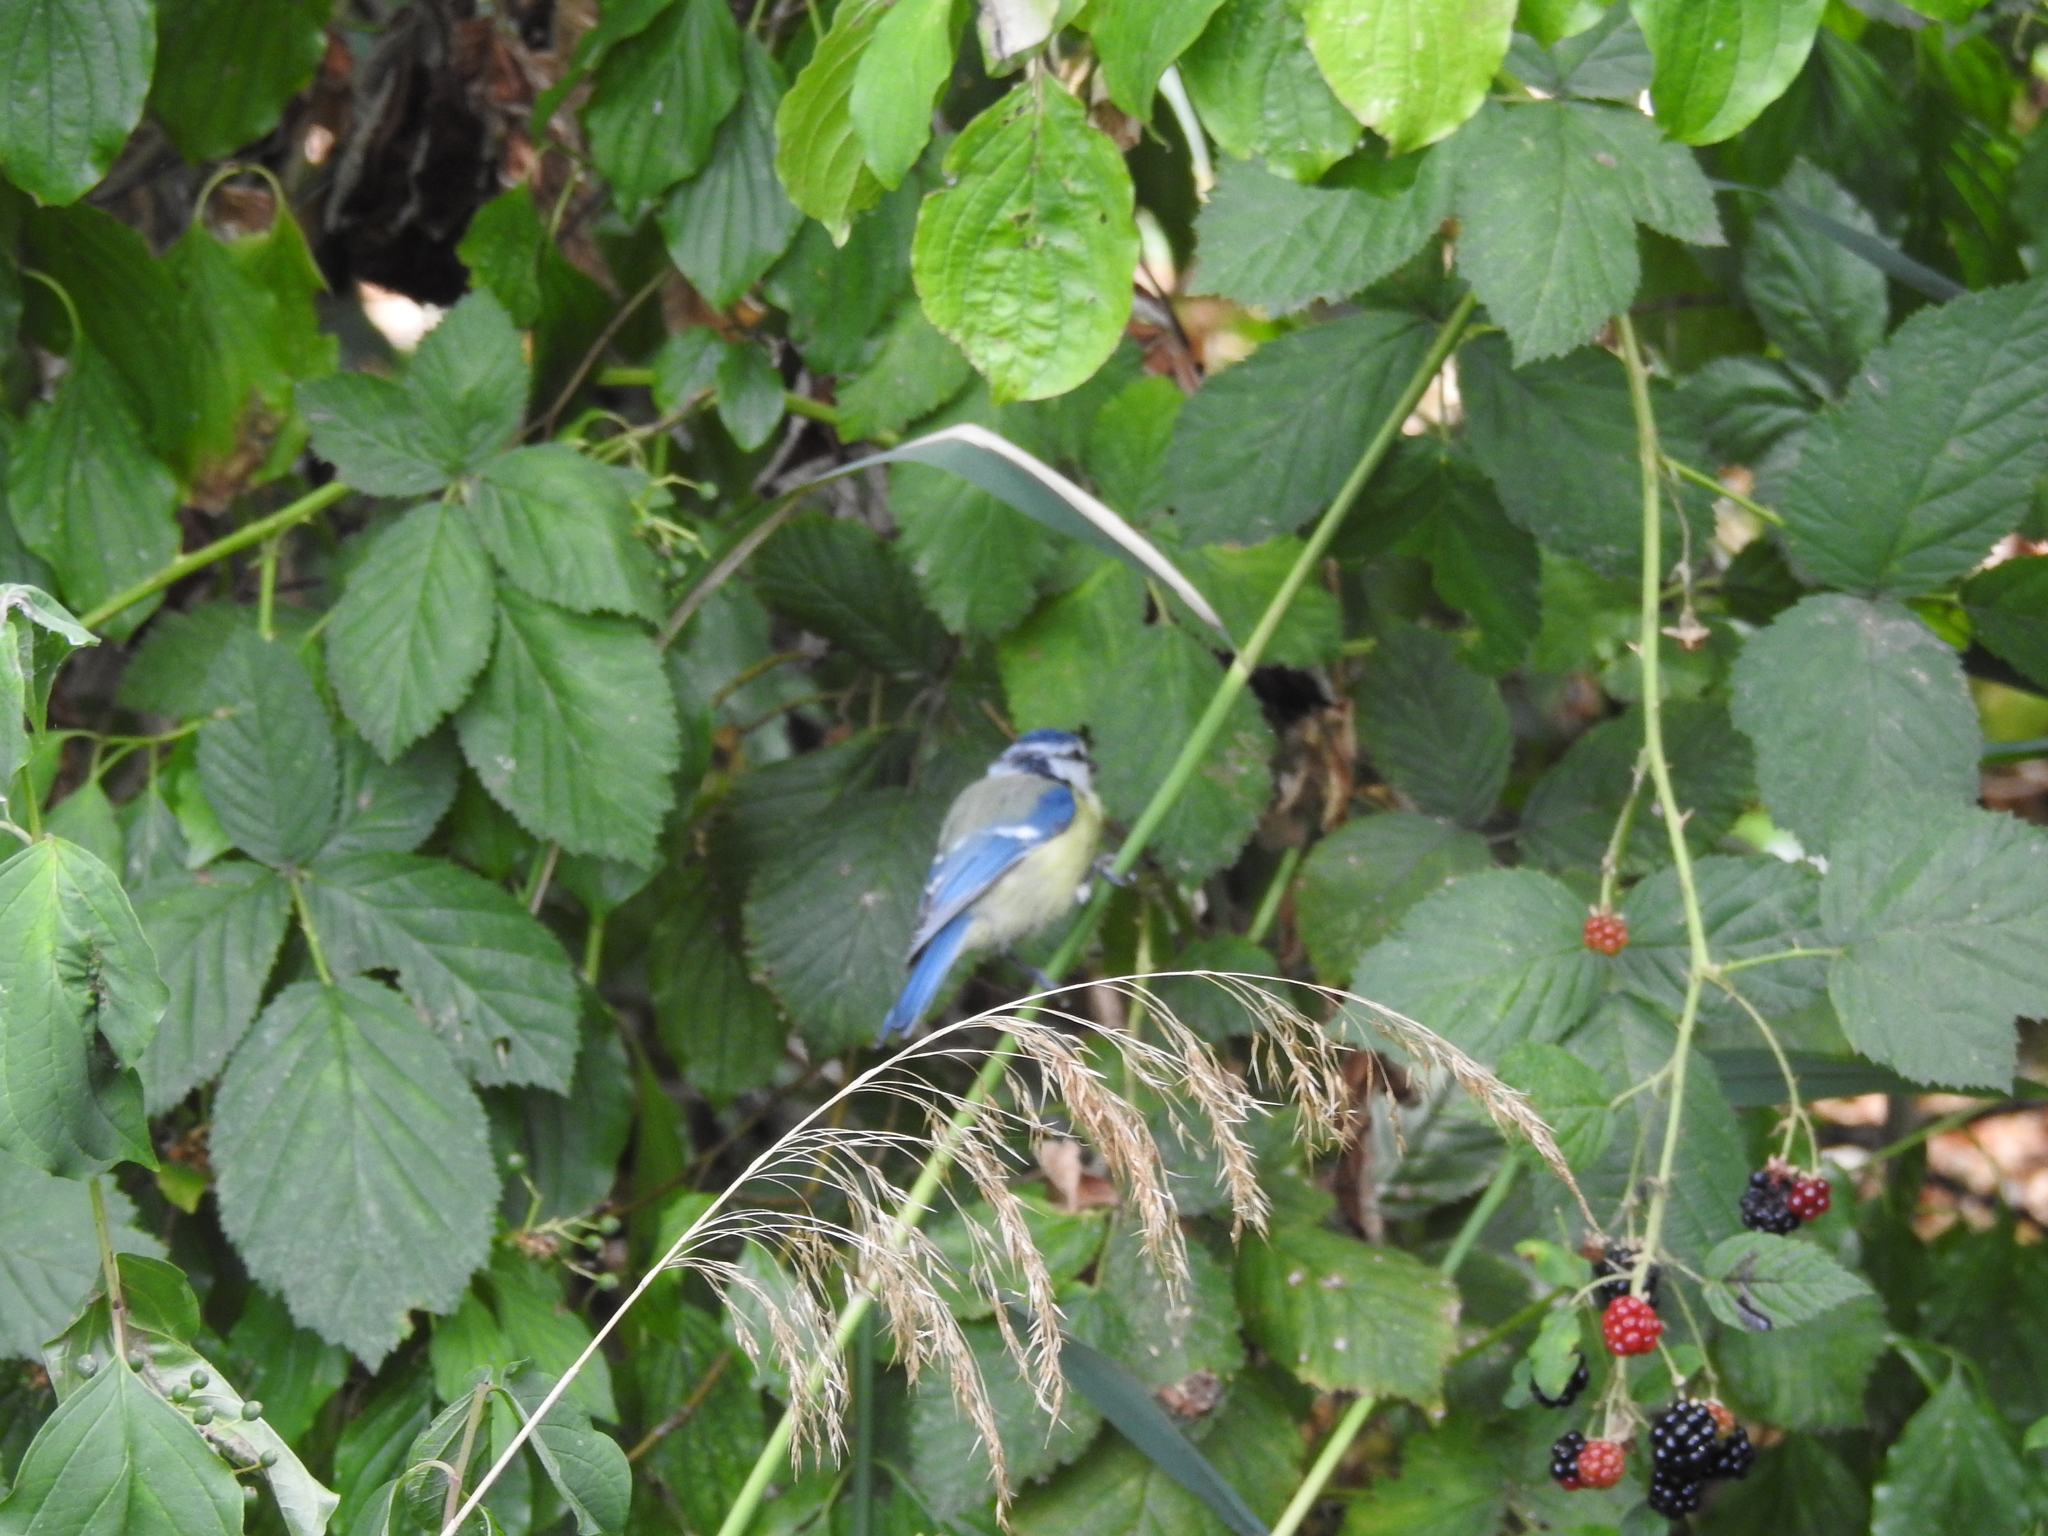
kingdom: Animalia
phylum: Chordata
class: Aves
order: Passeriformes
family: Paridae
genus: Cyanistes
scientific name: Cyanistes caeruleus
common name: Eurasian blue tit
